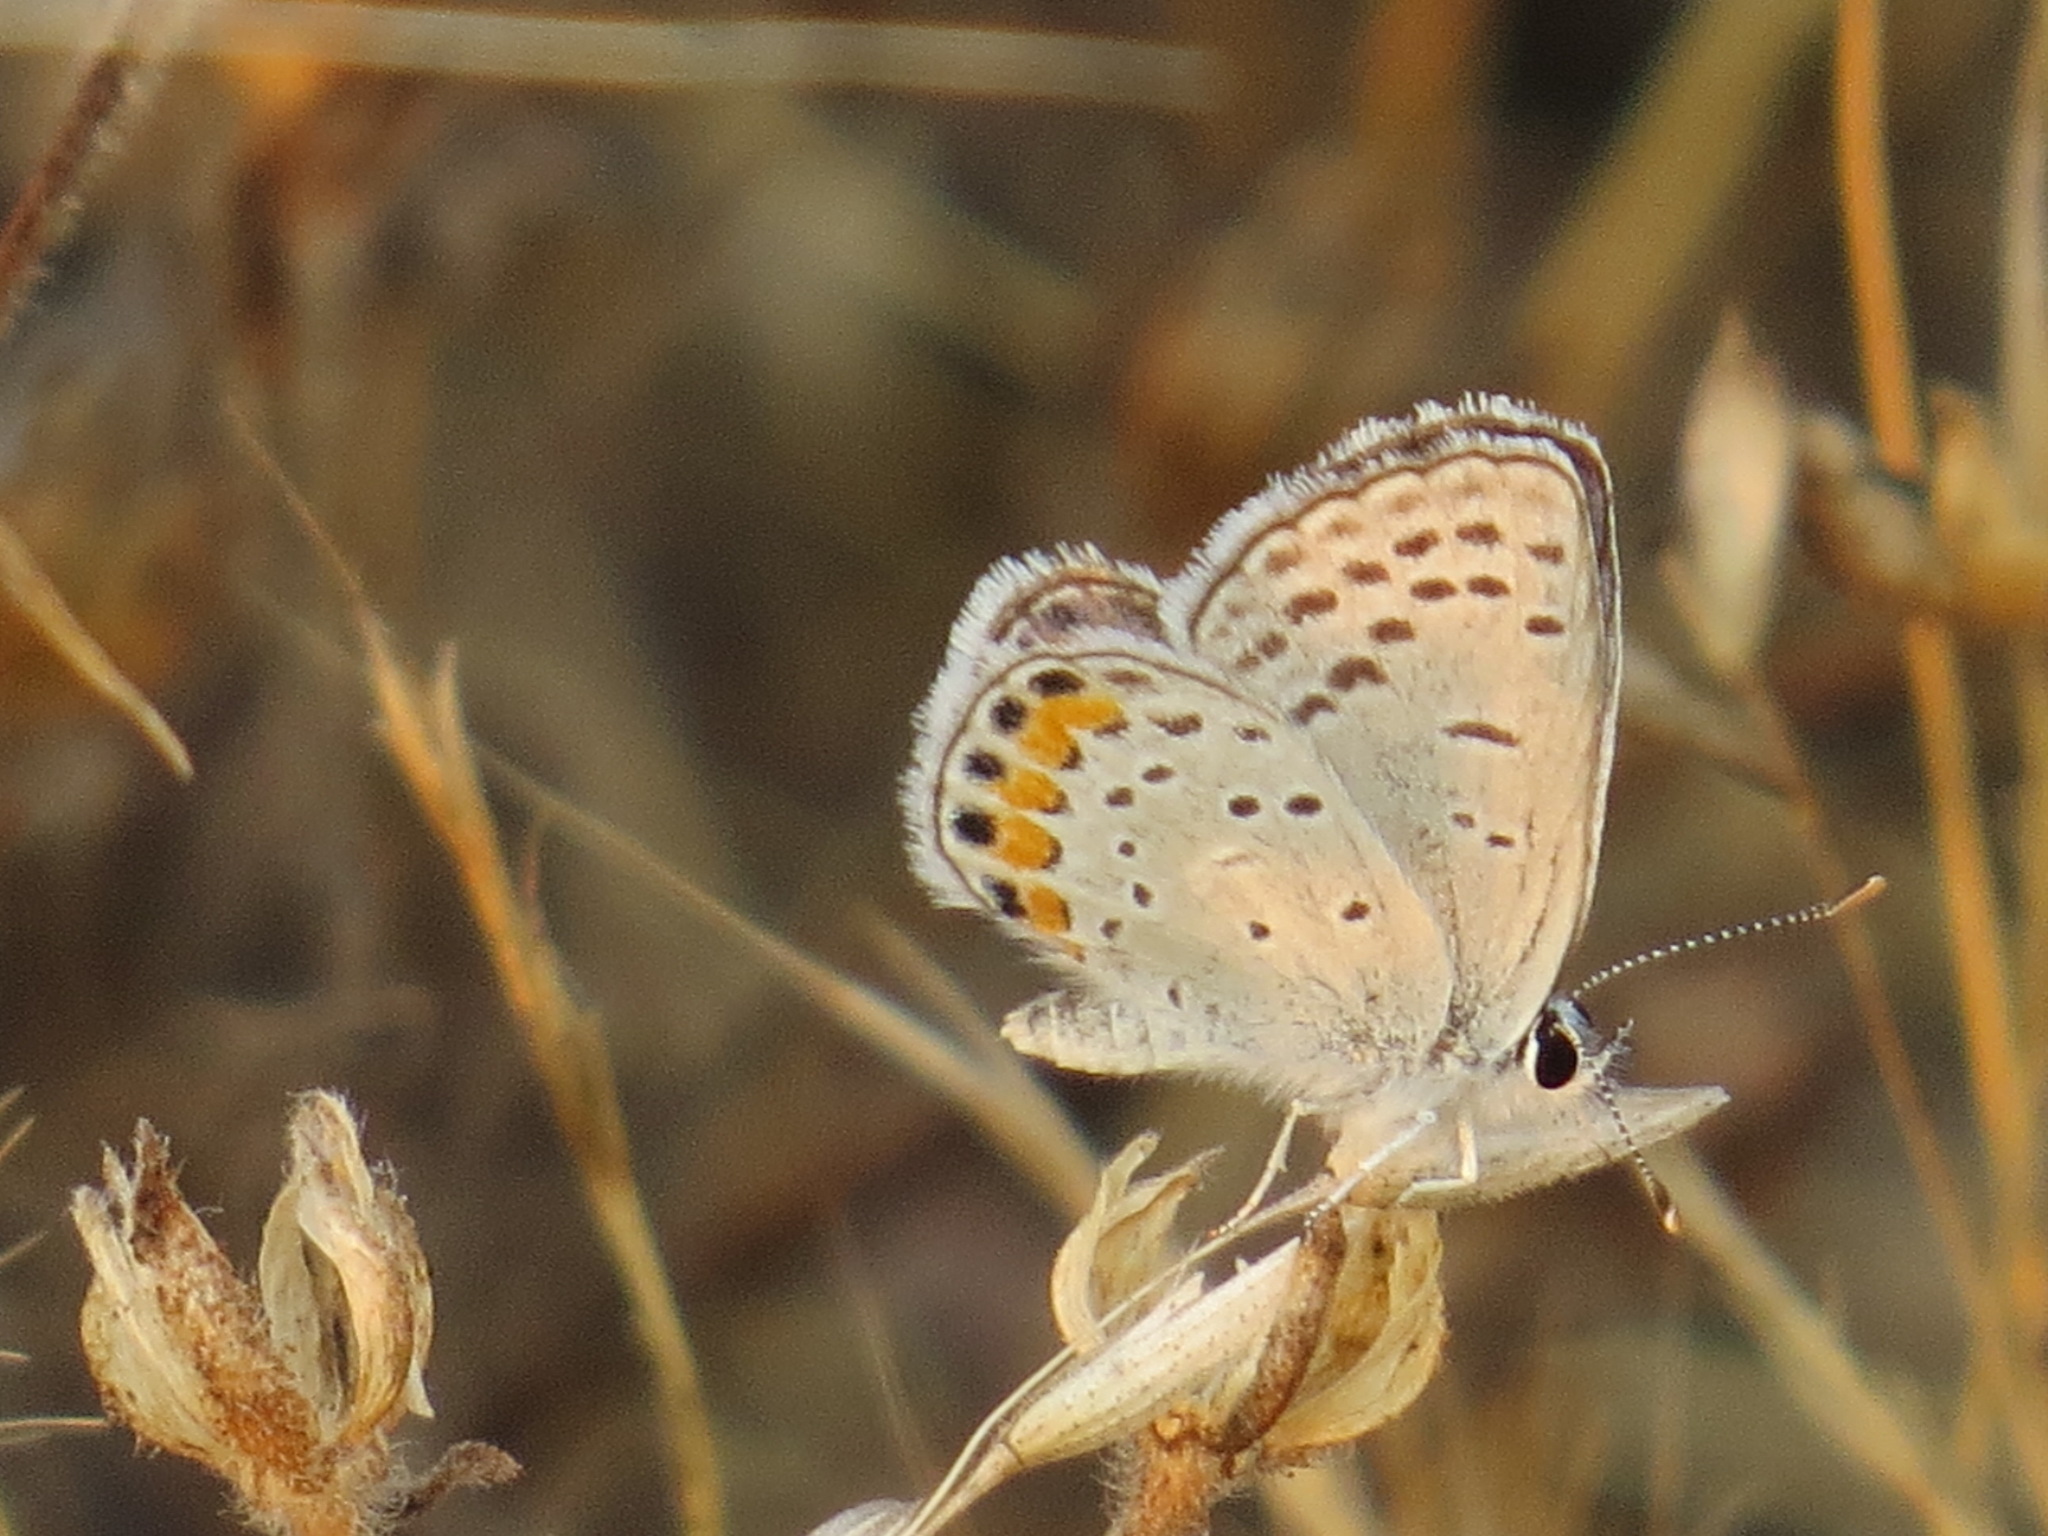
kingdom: Animalia
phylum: Arthropoda
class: Insecta
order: Lepidoptera
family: Lycaenidae
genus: Icaricia
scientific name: Icaricia acmon
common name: Acmon blue
